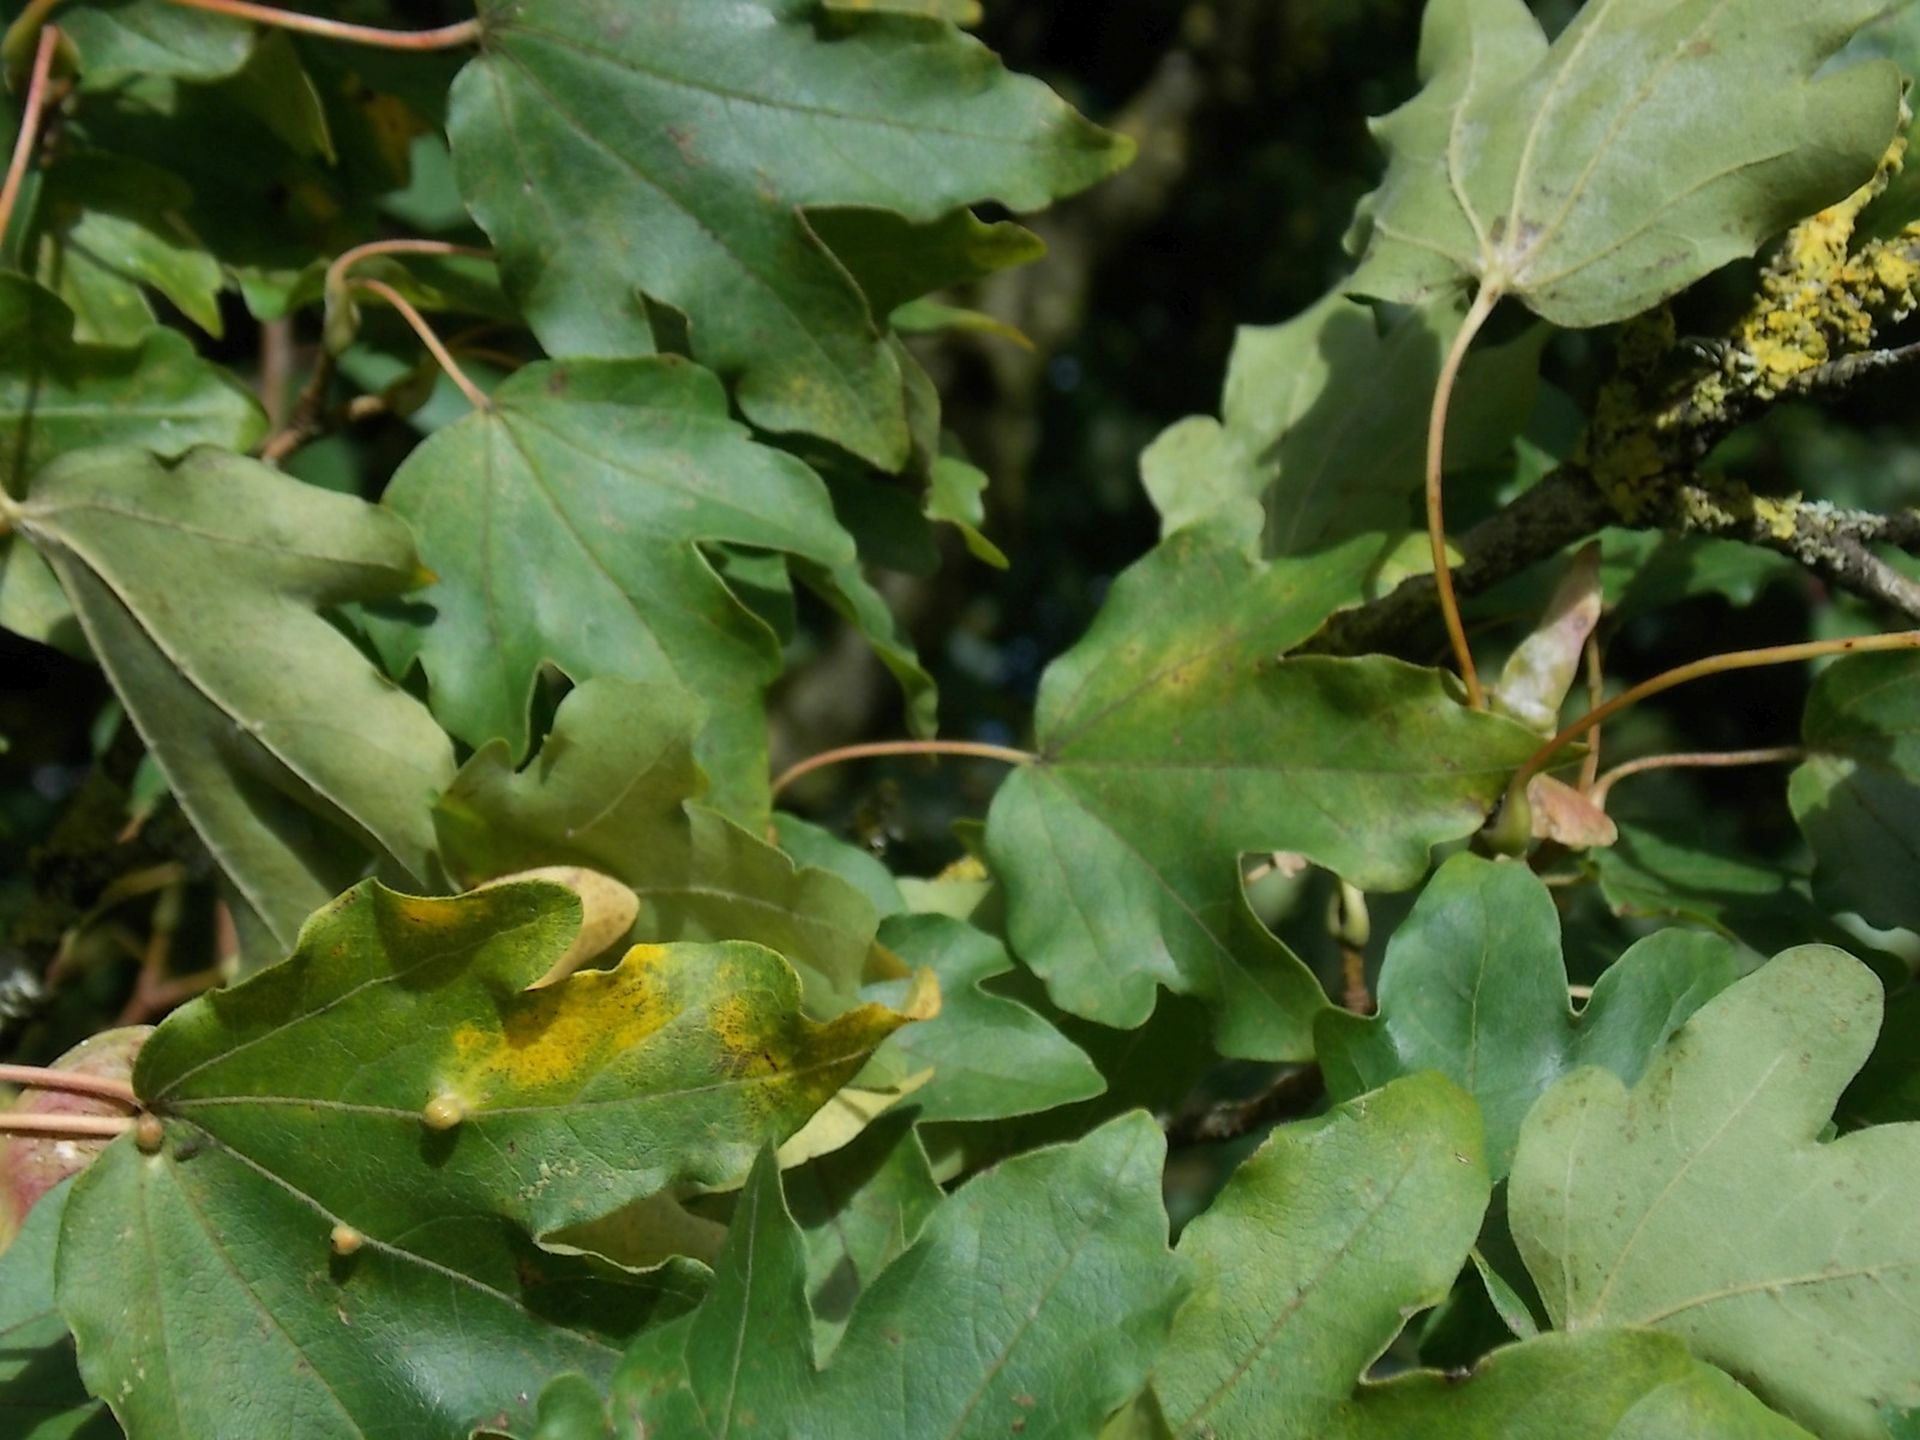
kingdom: Plantae
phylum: Tracheophyta
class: Magnoliopsida
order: Sapindales
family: Sapindaceae
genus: Acer
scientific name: Acer campestre
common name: Field maple
